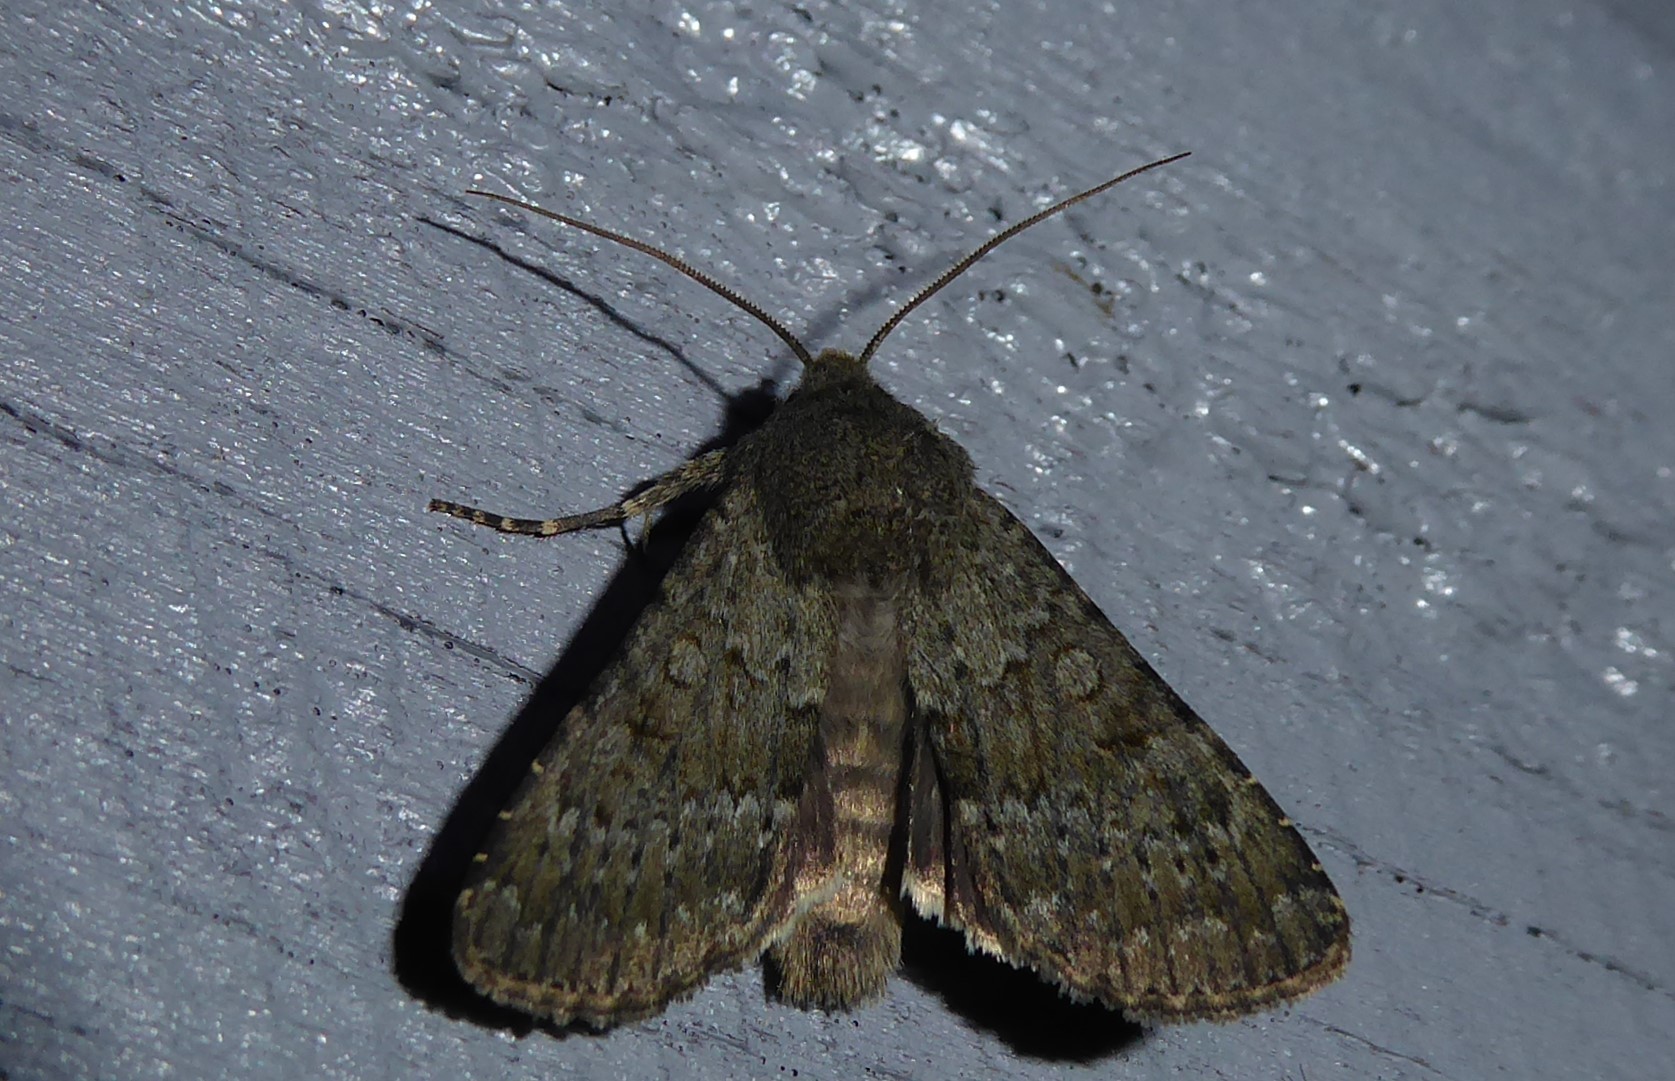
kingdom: Animalia
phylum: Arthropoda
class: Insecta
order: Lepidoptera
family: Noctuidae
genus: Ichneutica
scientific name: Ichneutica moderata
